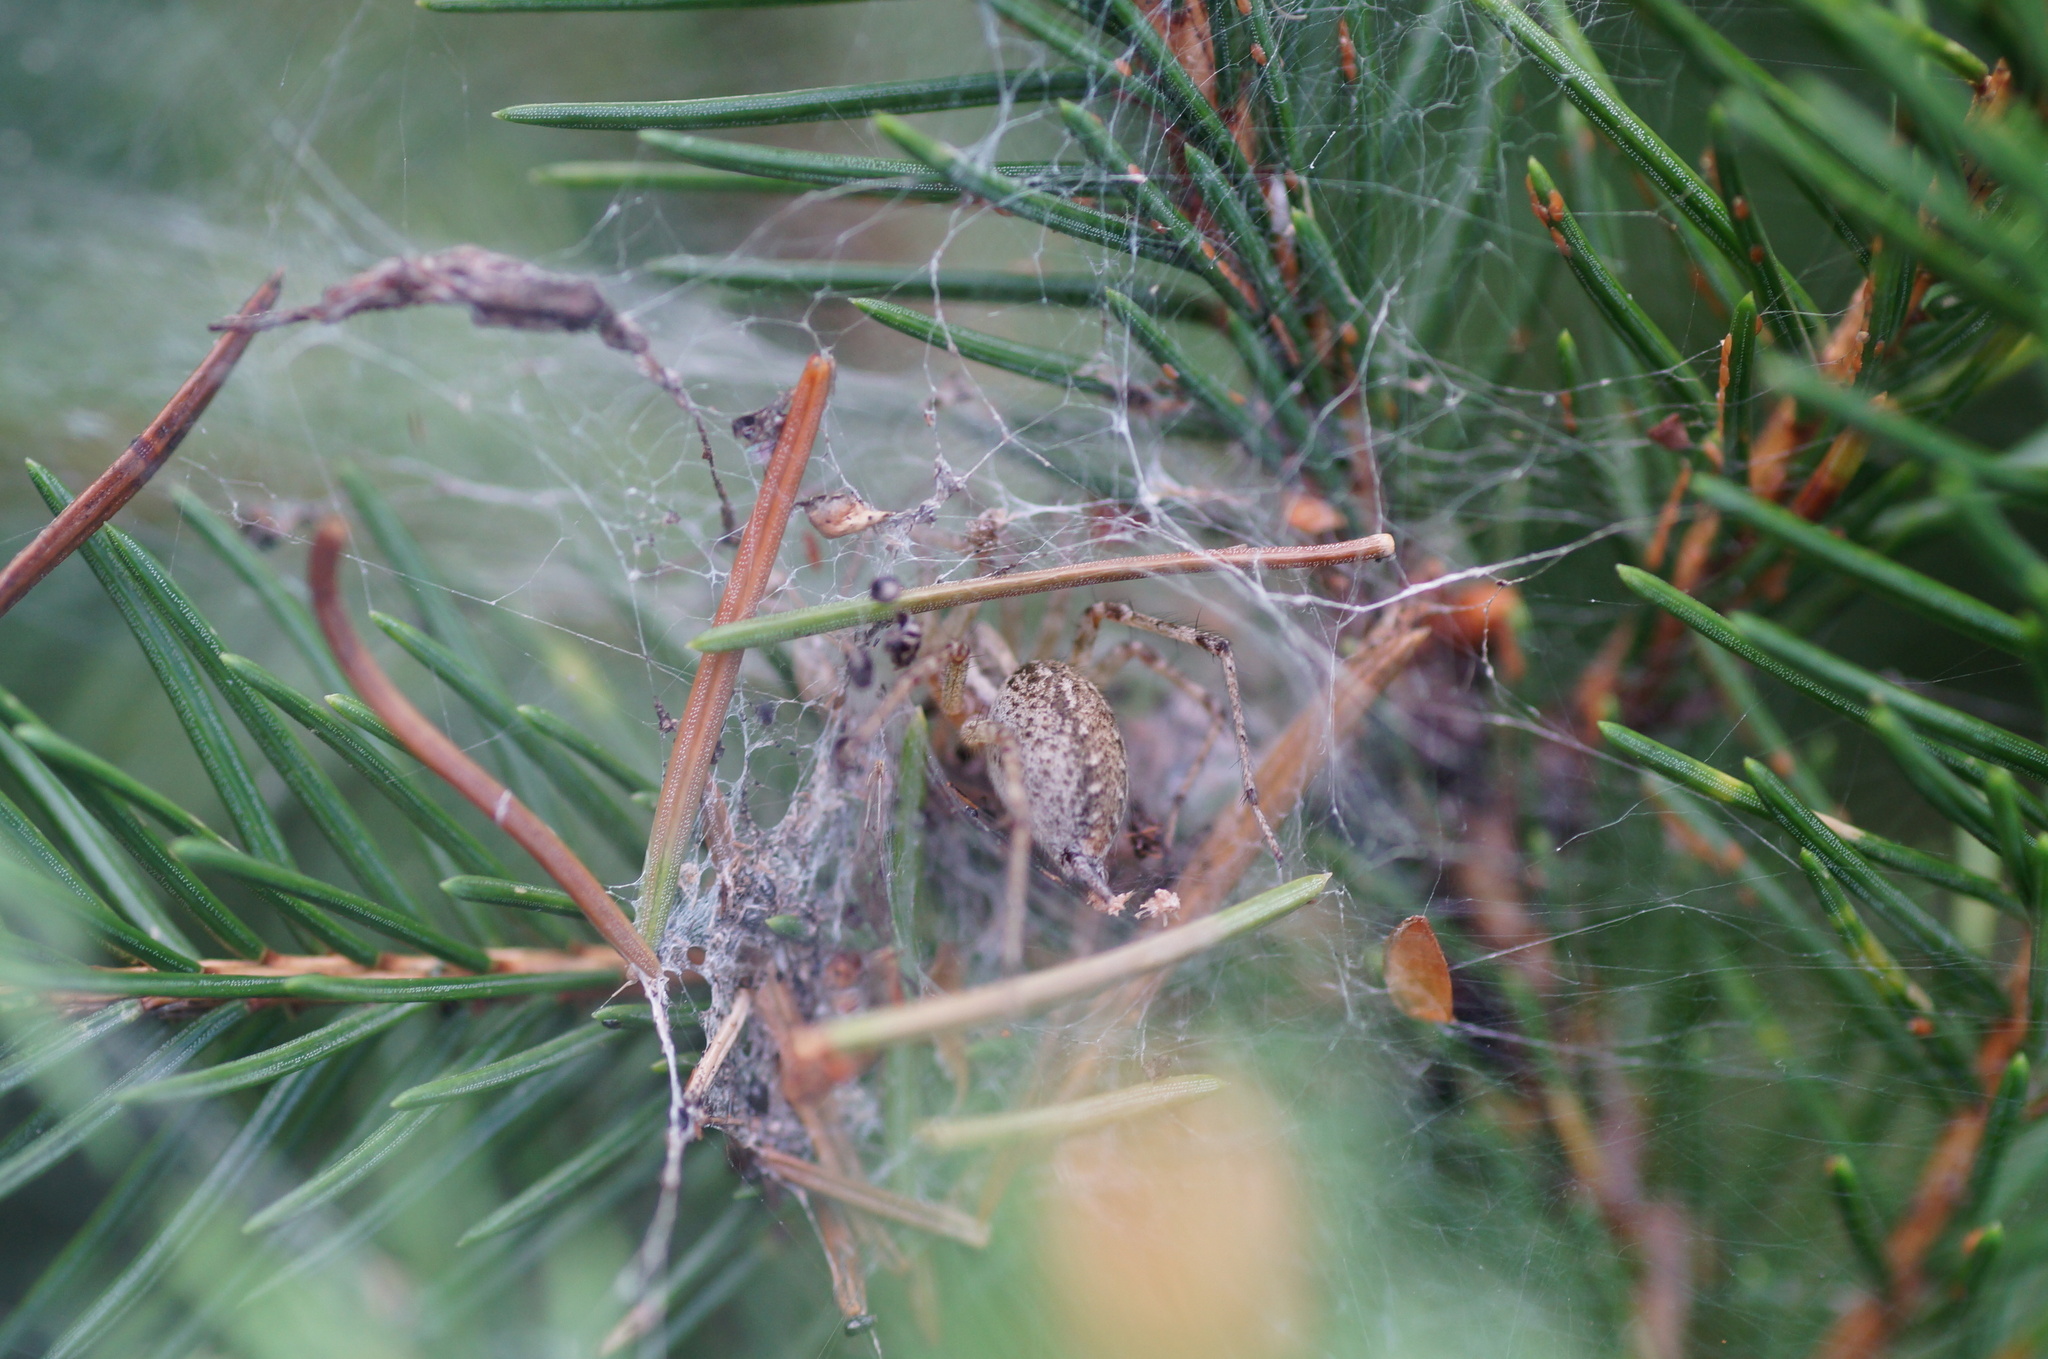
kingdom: Animalia
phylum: Arthropoda
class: Arachnida
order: Araneae
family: Agelenidae
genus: Agelena
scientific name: Agelena labyrinthica
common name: Labyrinth spider
